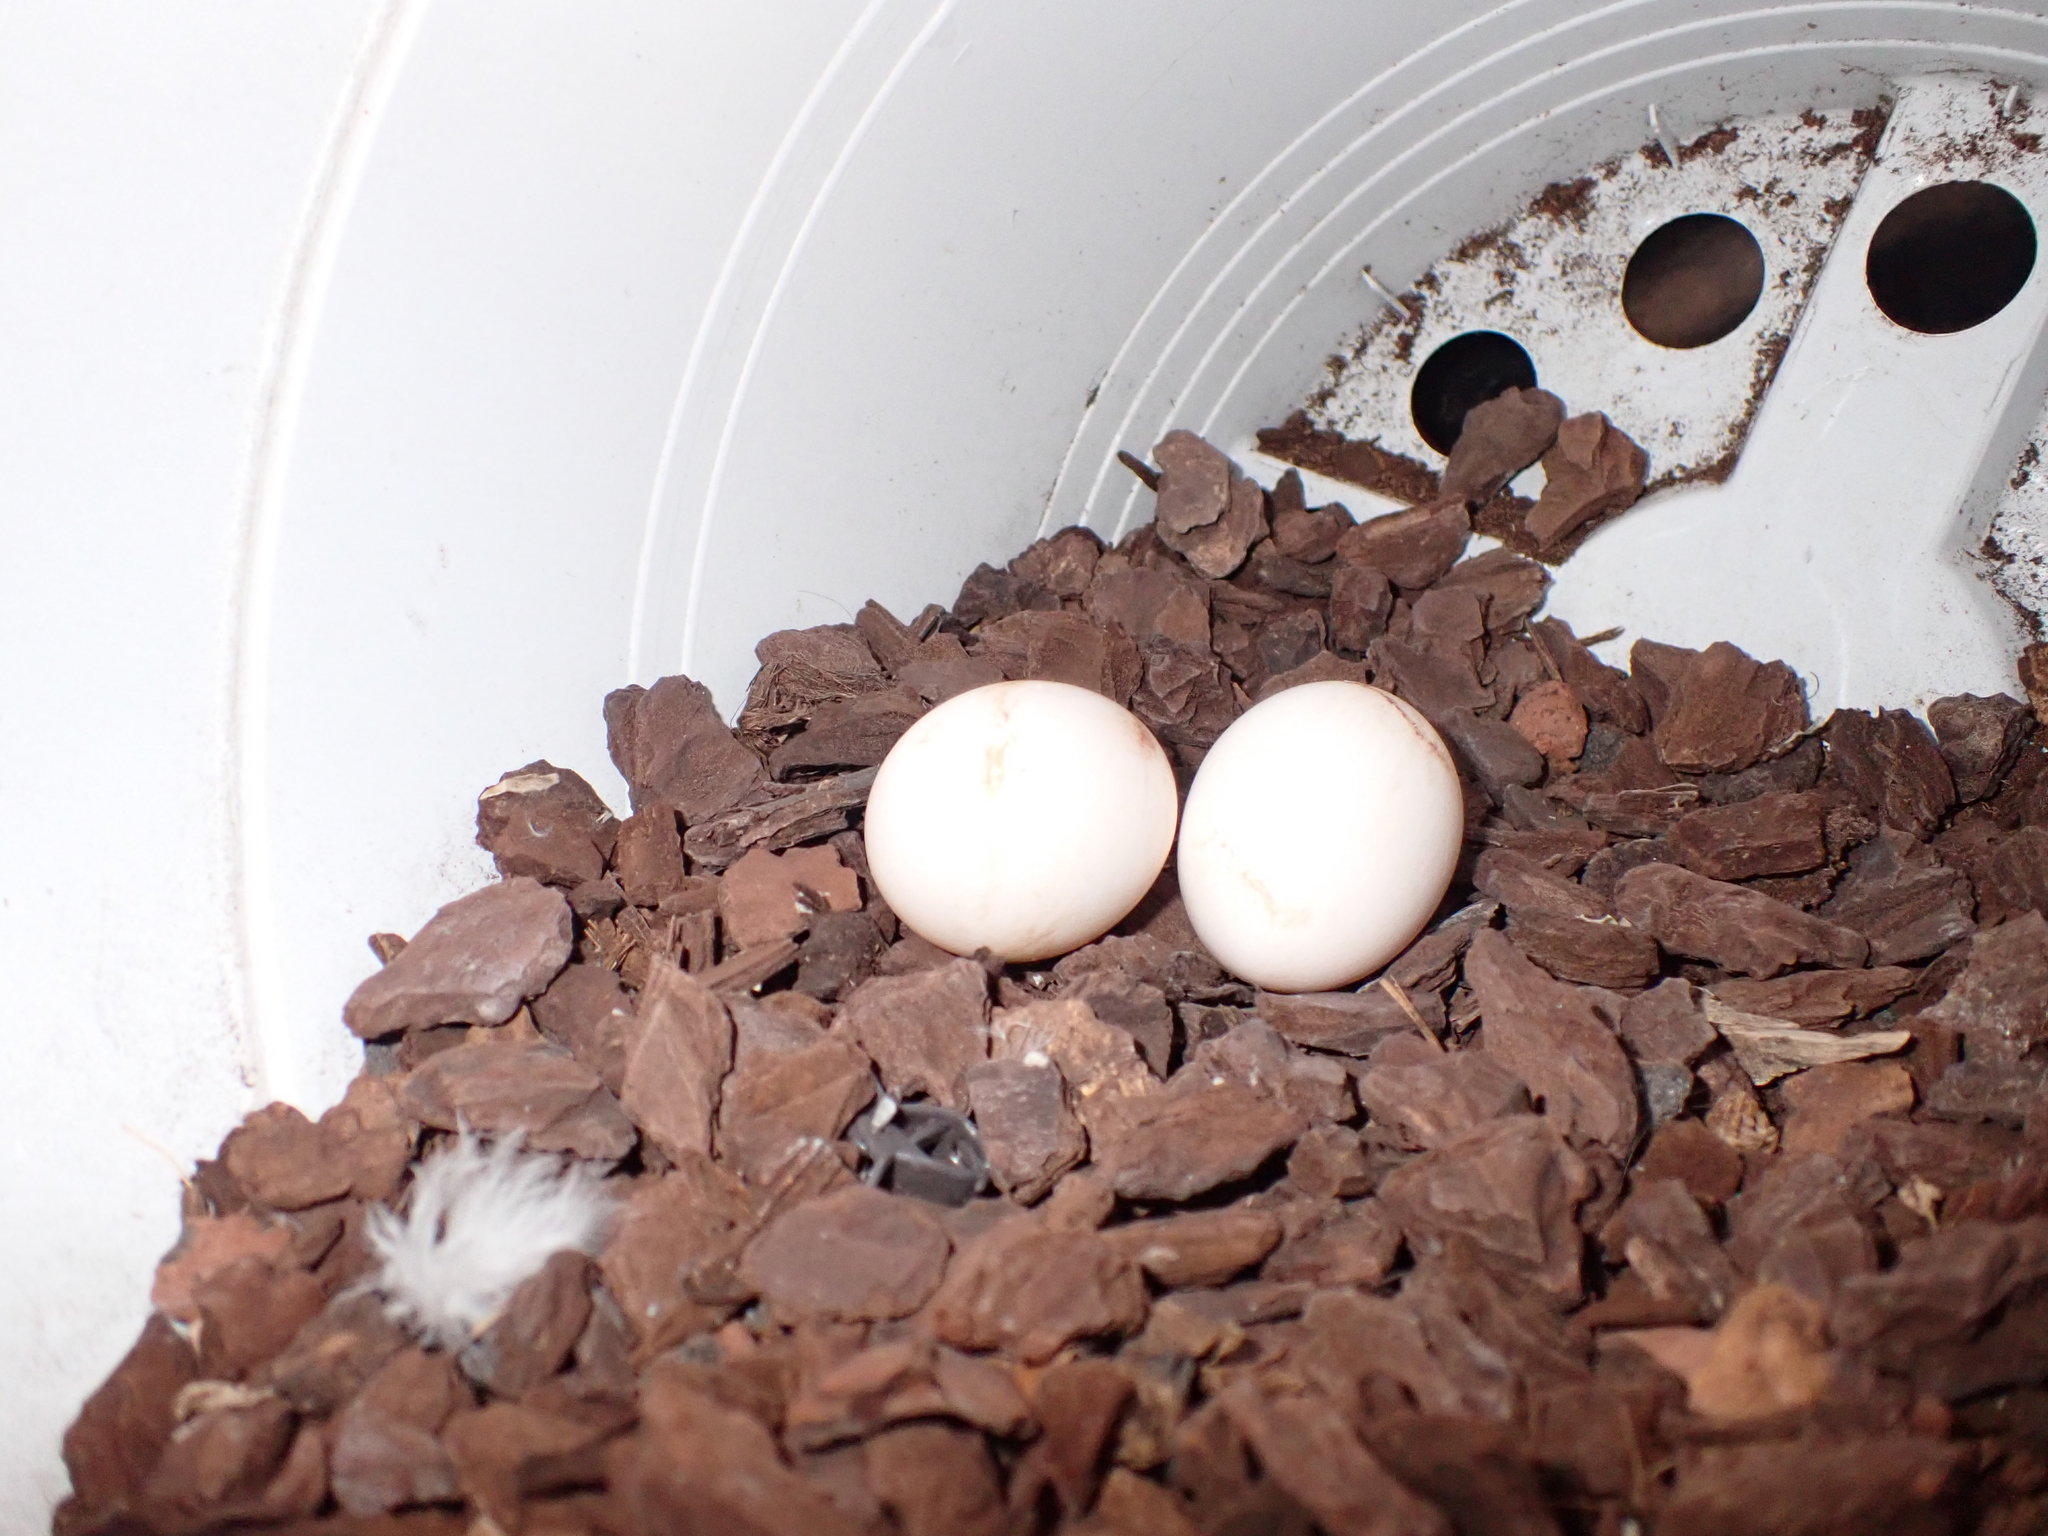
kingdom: Animalia
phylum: Chordata
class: Aves
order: Columbiformes
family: Columbidae
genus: Columba
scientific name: Columba livia
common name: Rock pigeon
